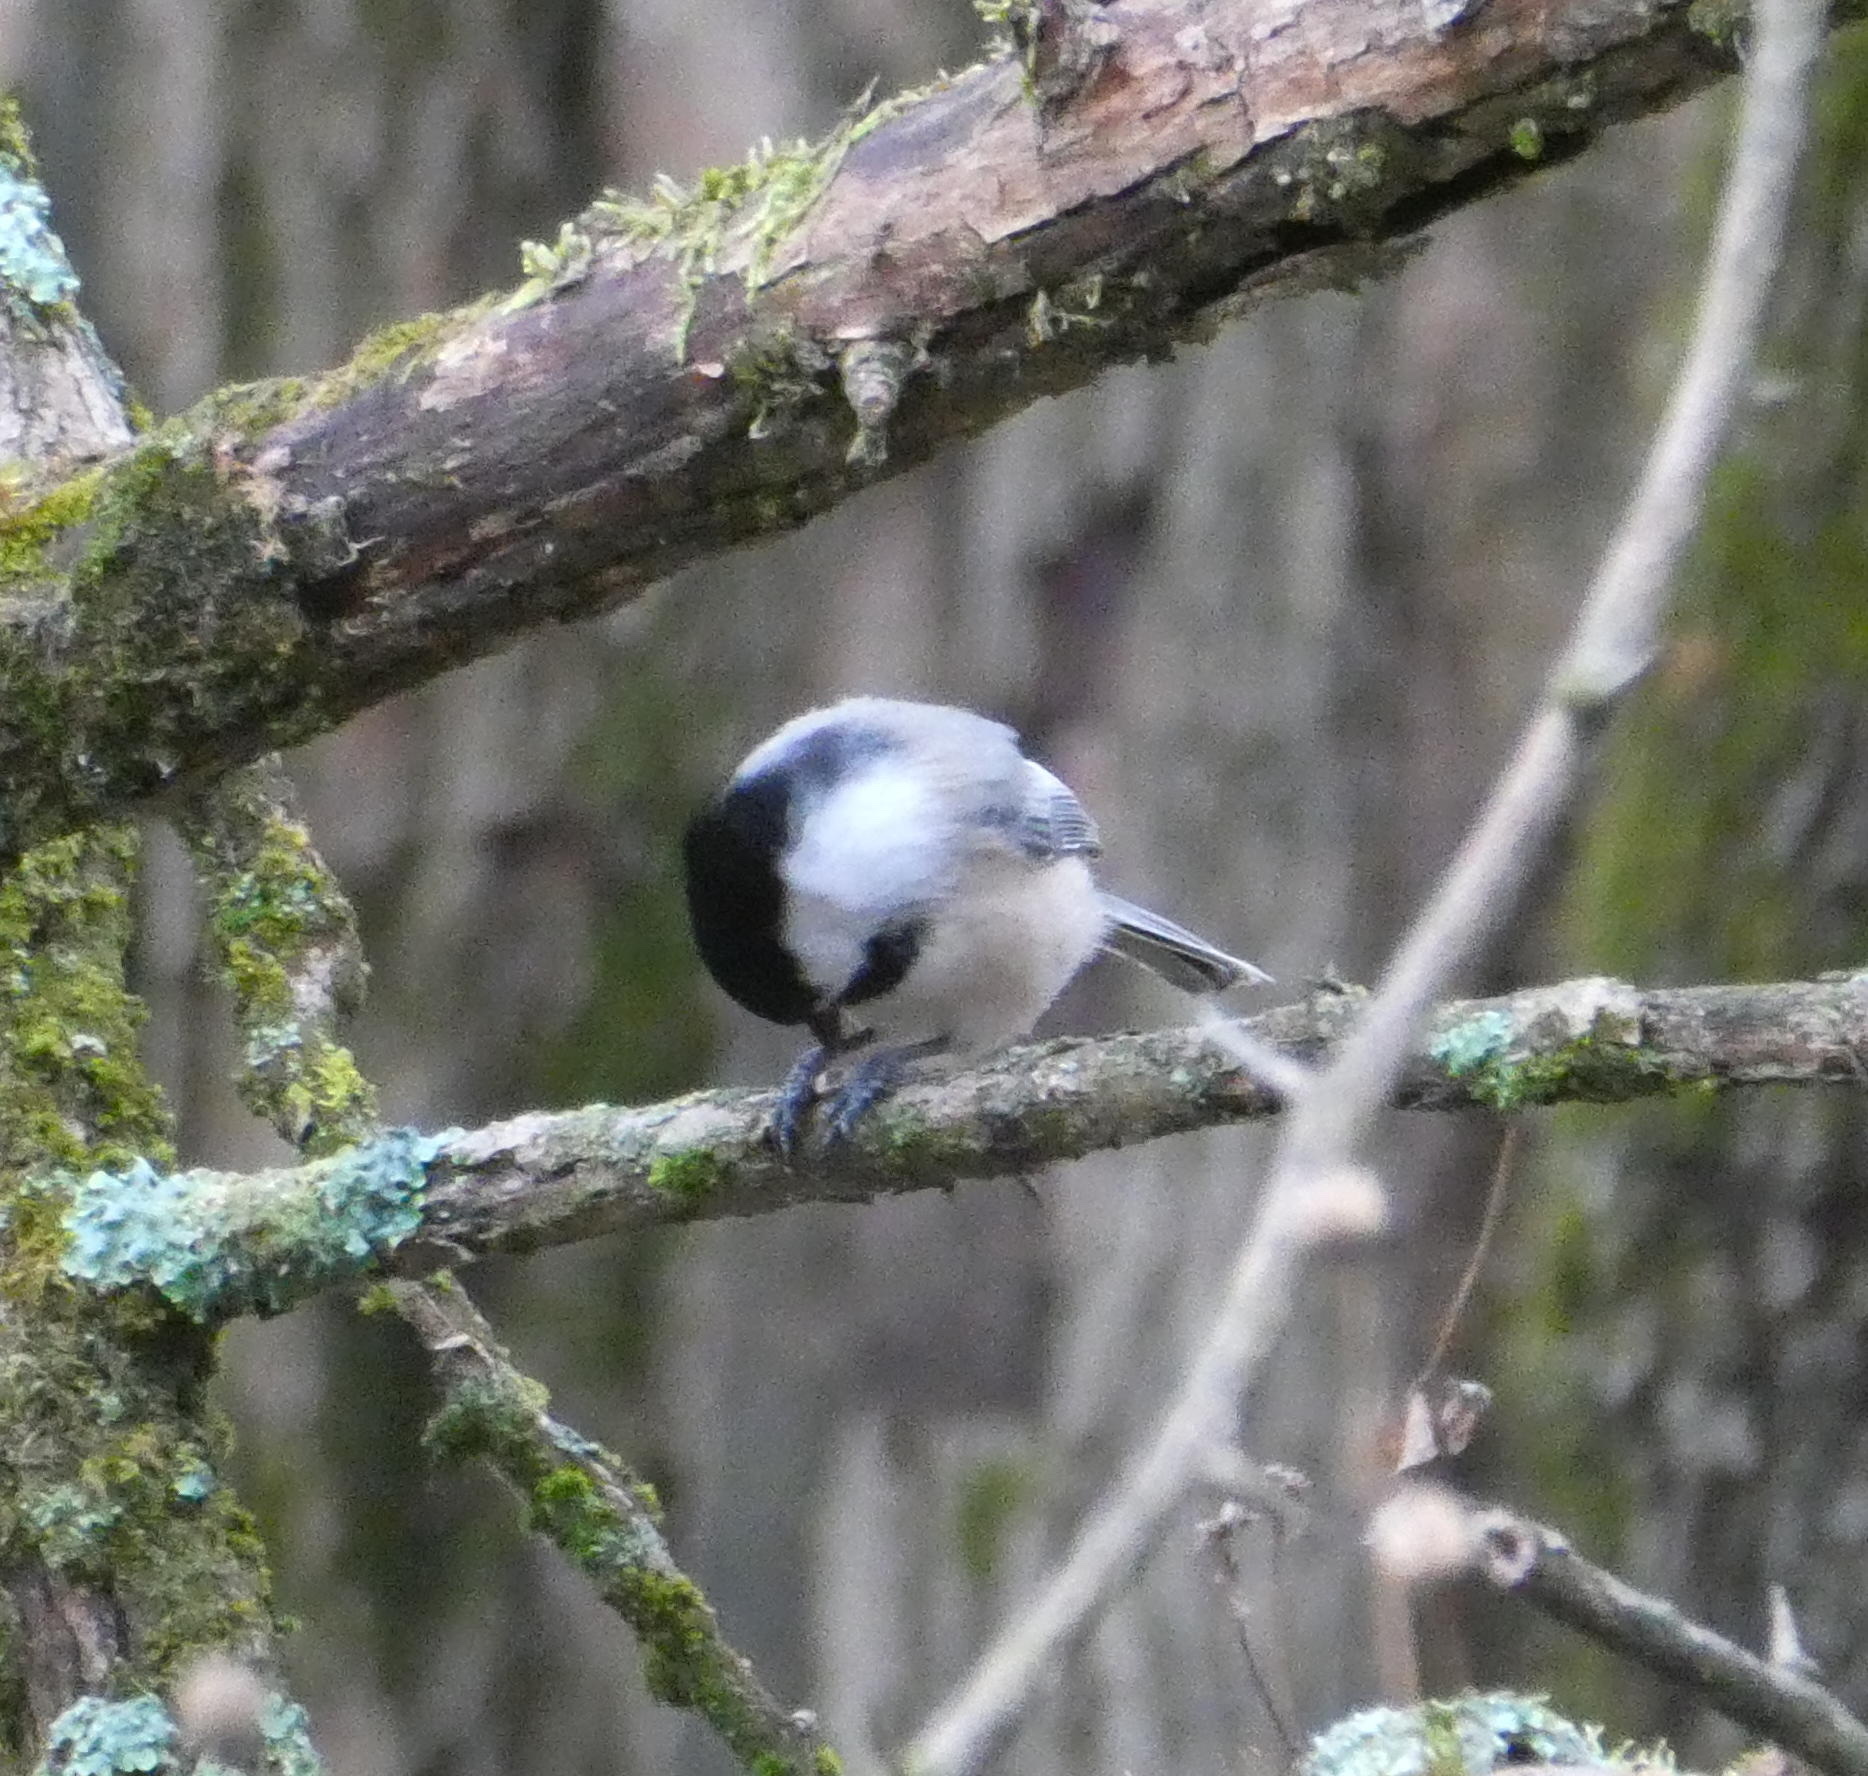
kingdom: Animalia
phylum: Chordata
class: Aves
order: Passeriformes
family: Paridae
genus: Poecile
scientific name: Poecile atricapillus
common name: Black-capped chickadee
